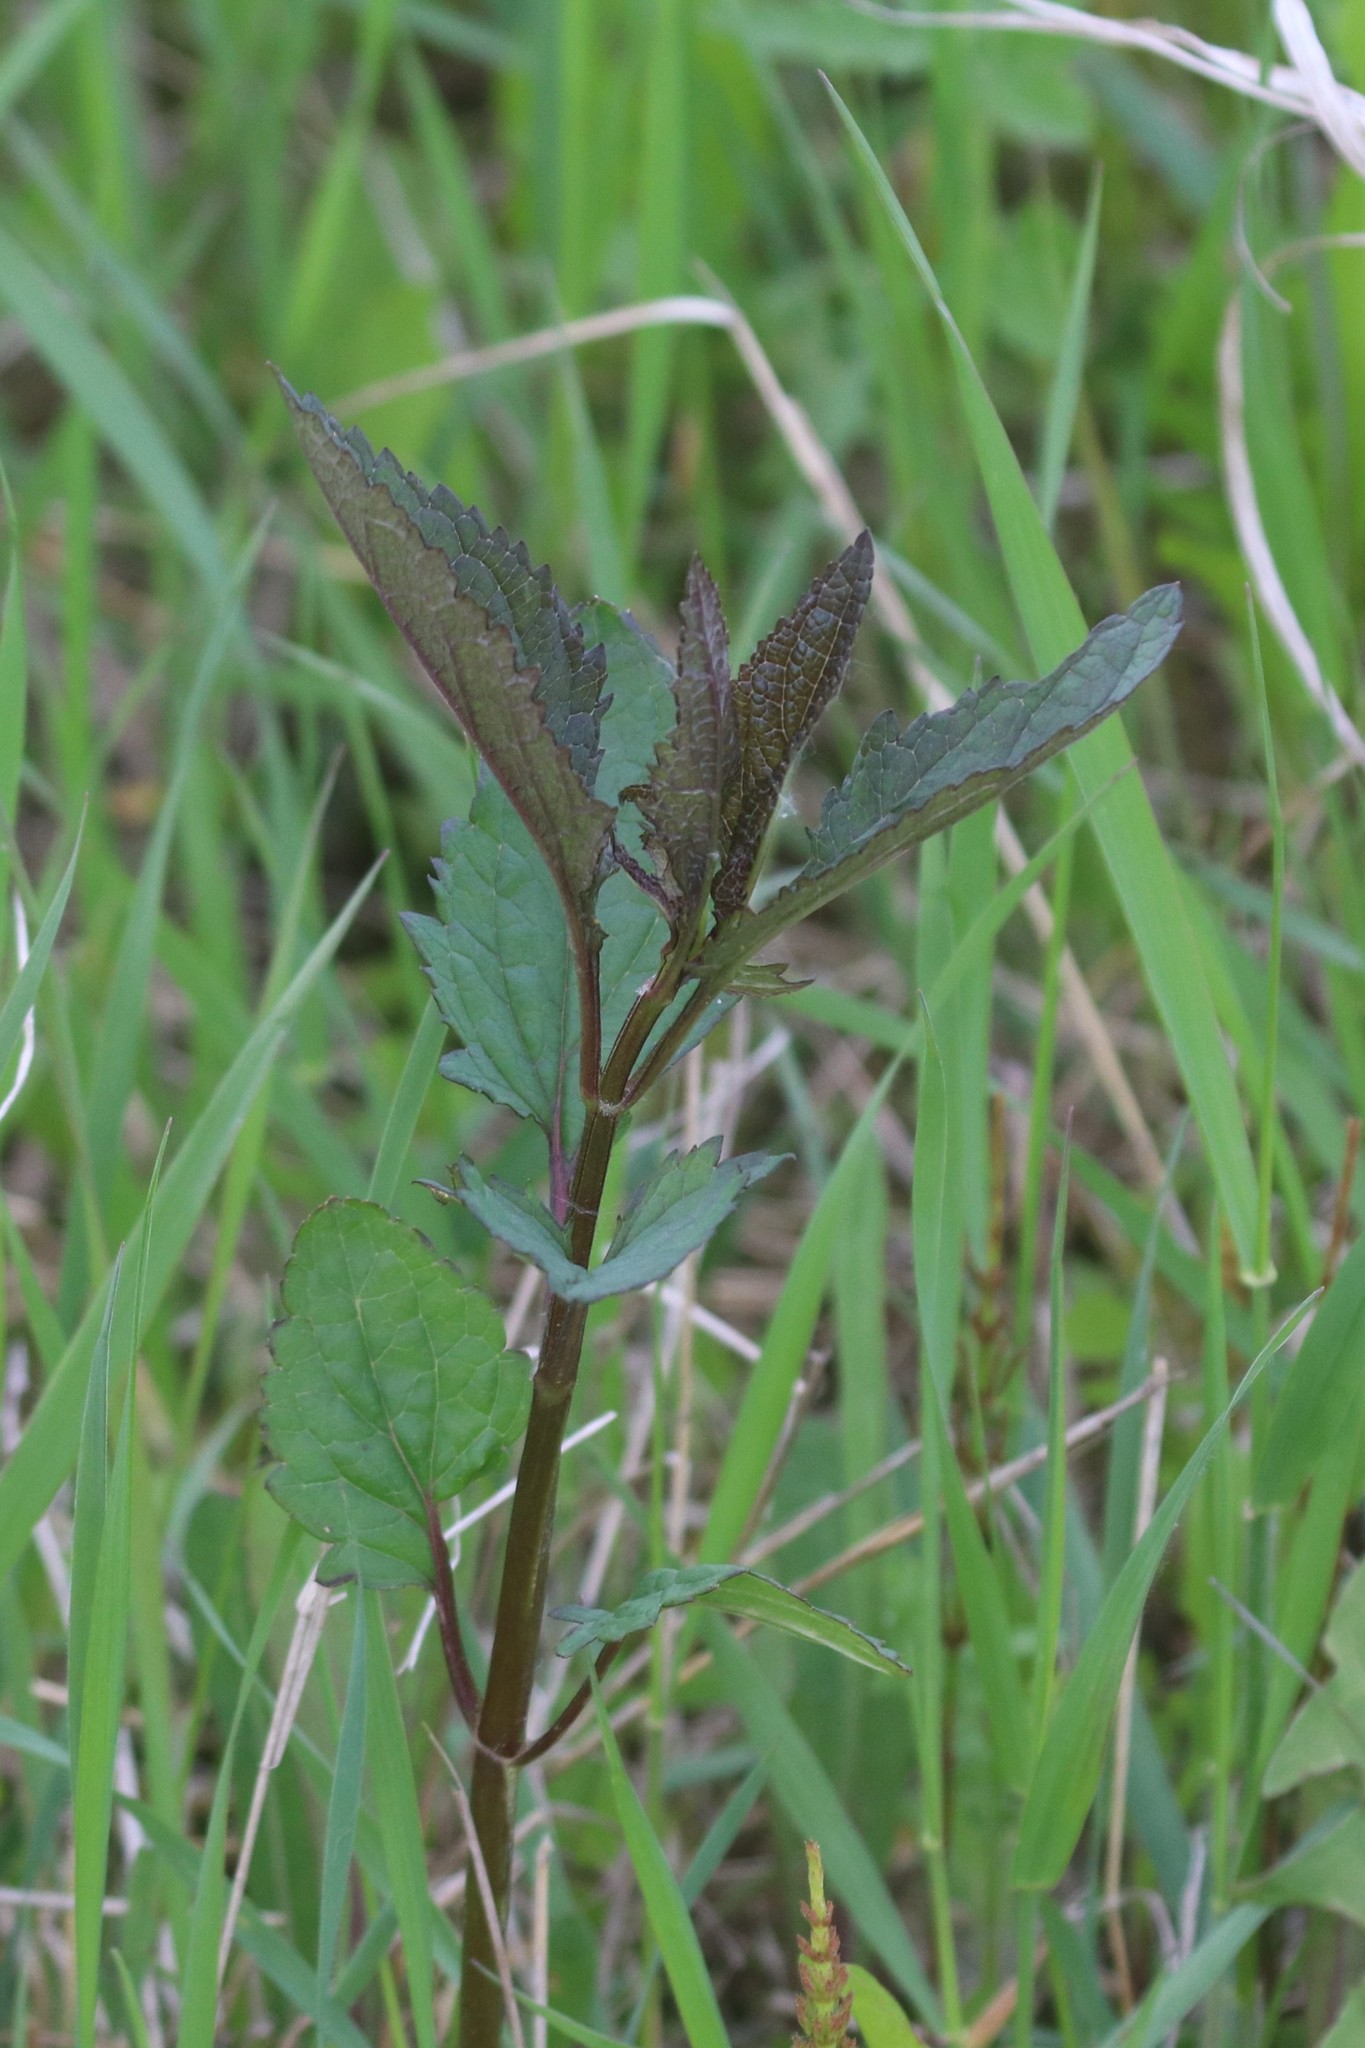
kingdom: Plantae
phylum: Tracheophyta
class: Magnoliopsida
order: Lamiales
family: Scrophulariaceae
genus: Scrophularia
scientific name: Scrophularia nodosa
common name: Common figwort
